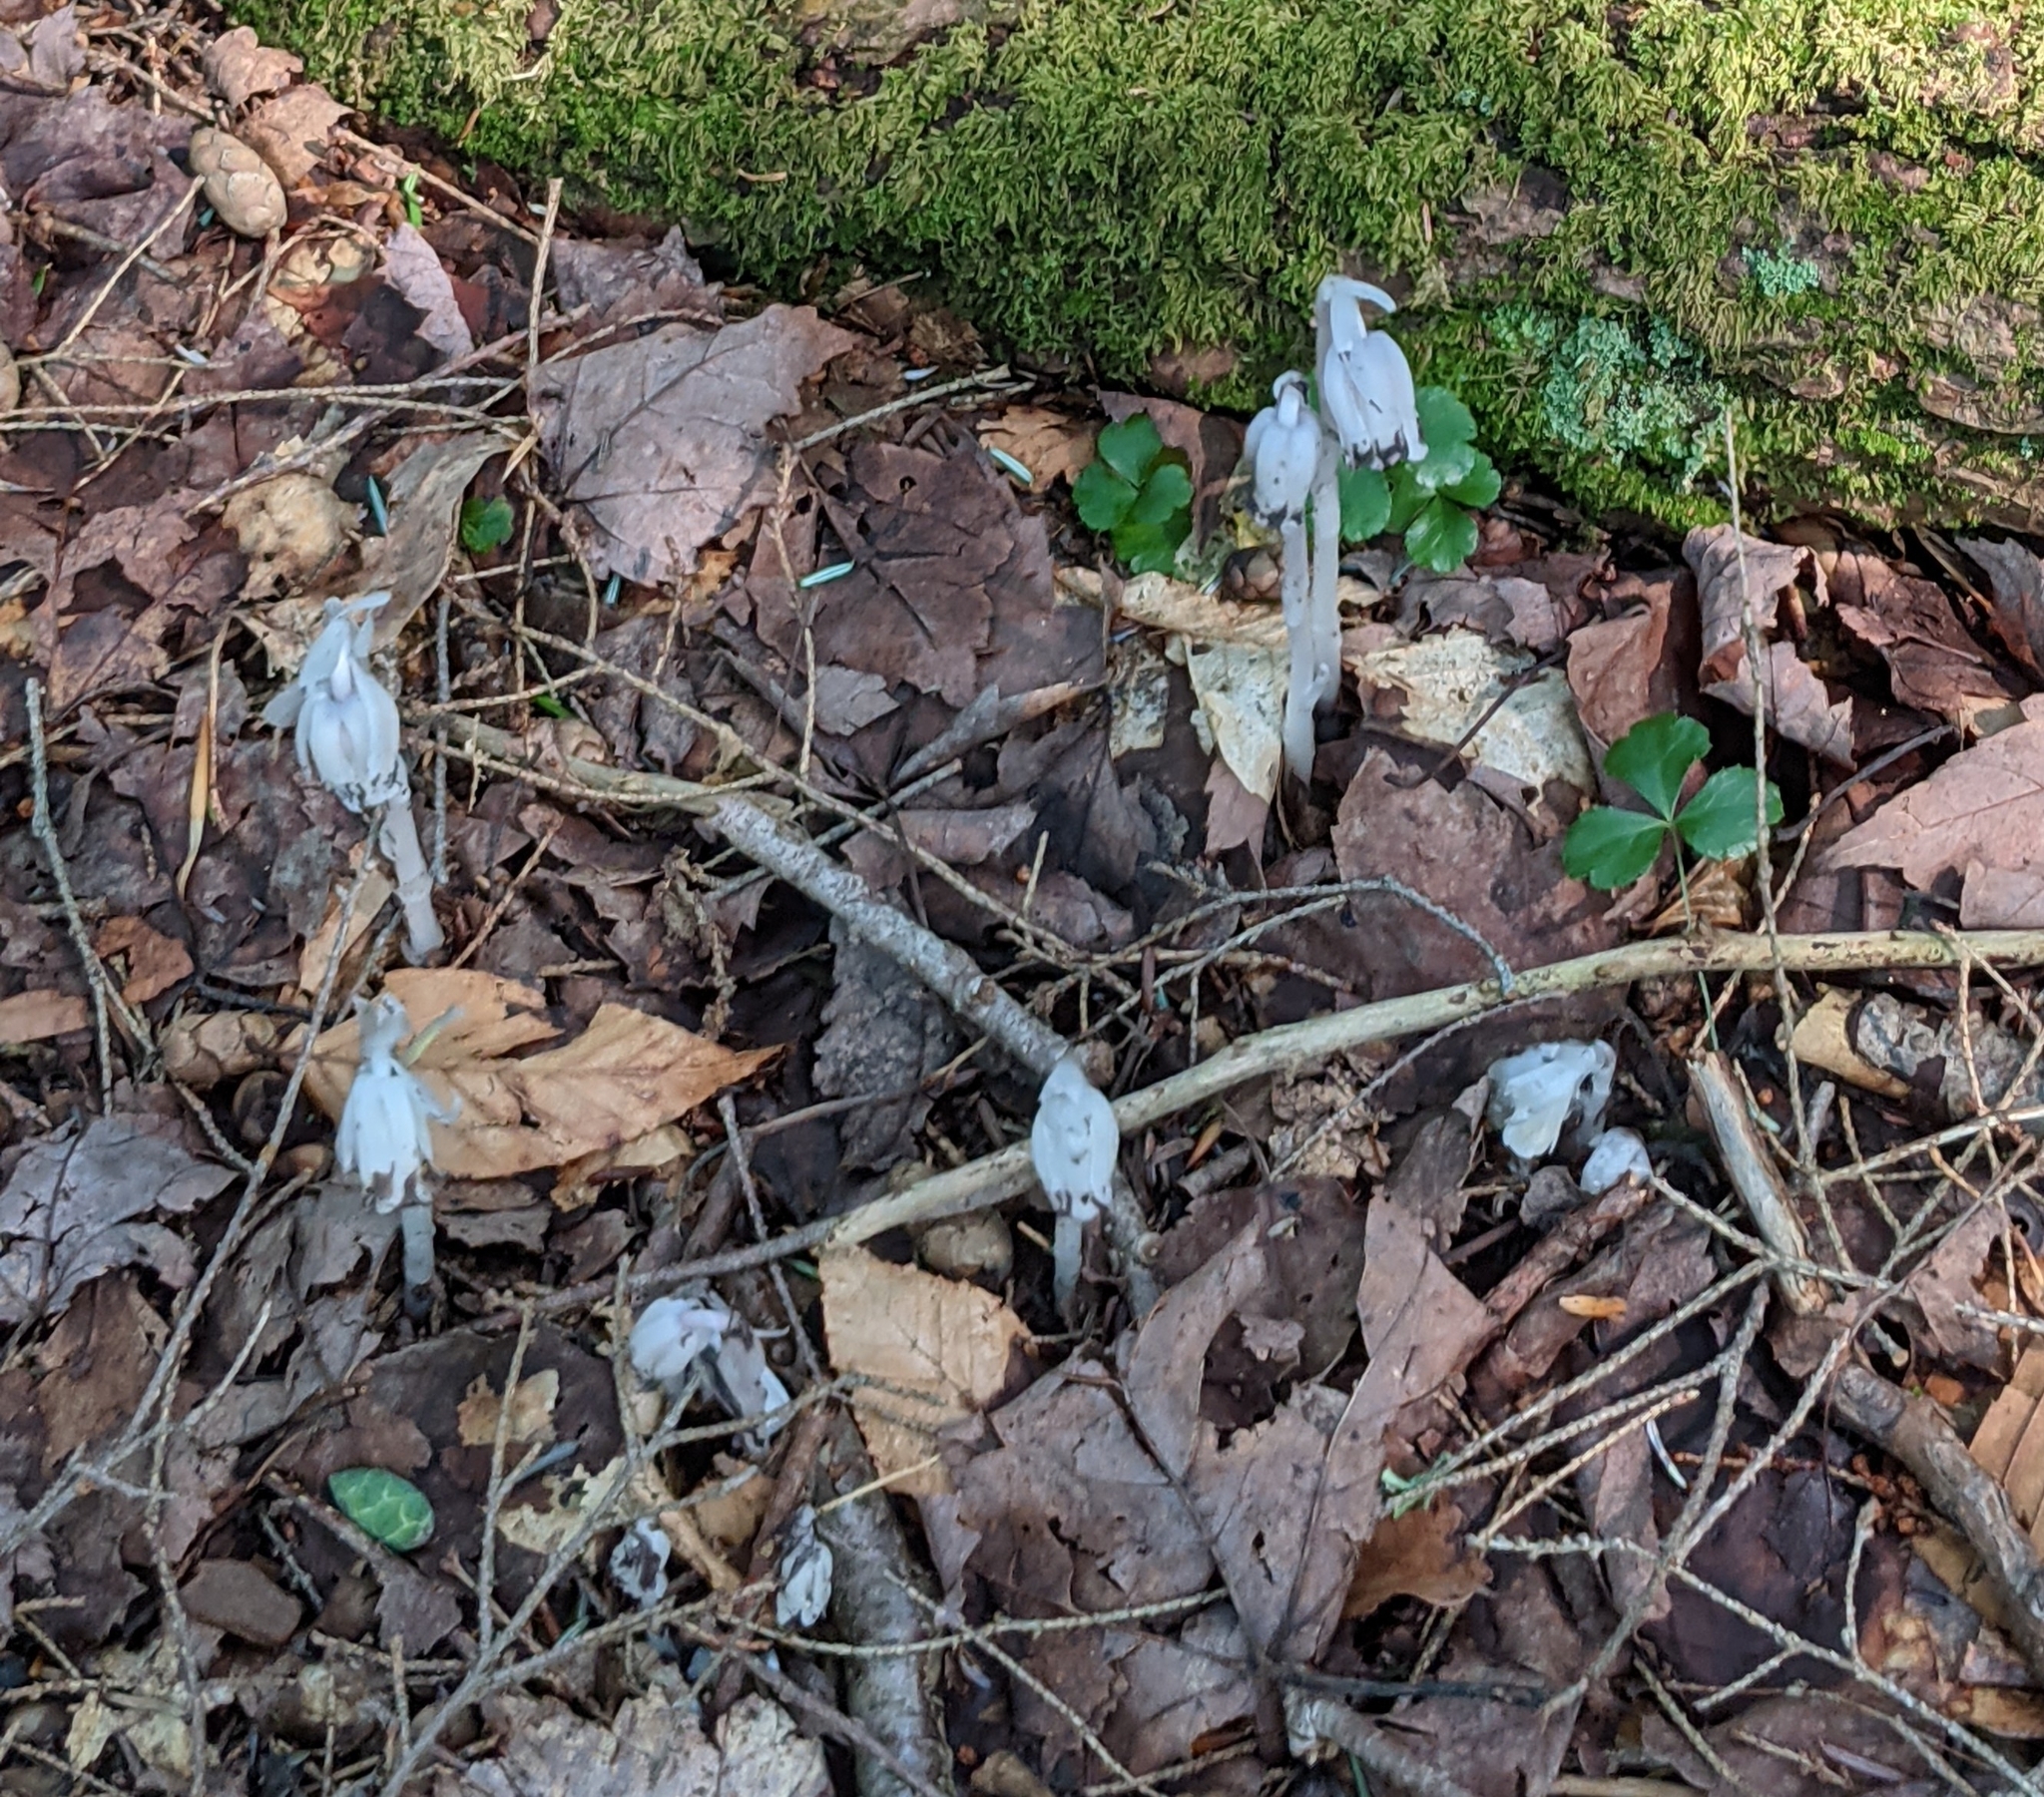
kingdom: Plantae
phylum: Tracheophyta
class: Magnoliopsida
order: Ericales
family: Ericaceae
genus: Monotropa
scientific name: Monotropa uniflora
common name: Convulsion root
